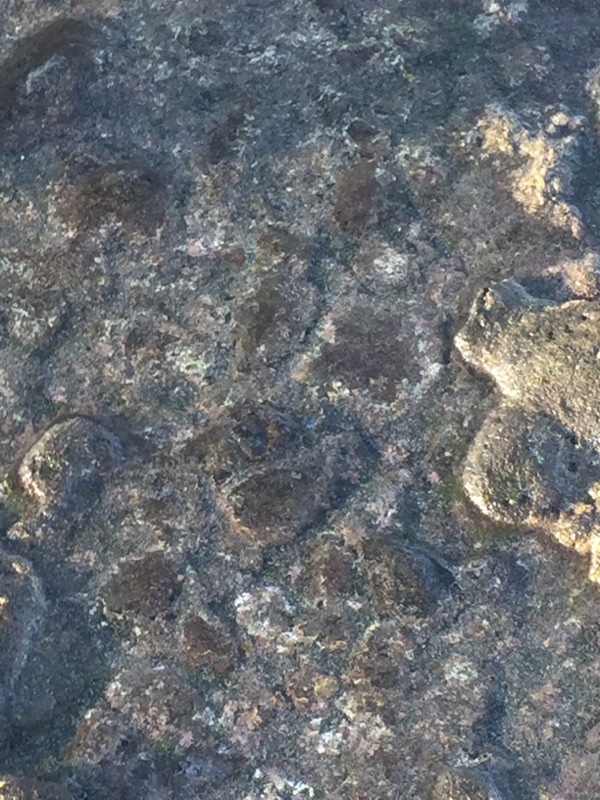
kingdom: Animalia
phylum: Mollusca
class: Gastropoda
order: Aplysiida
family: Aplysiidae
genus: Aplysia
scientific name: Aplysia dactylomela
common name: Large-spotted sea hare
